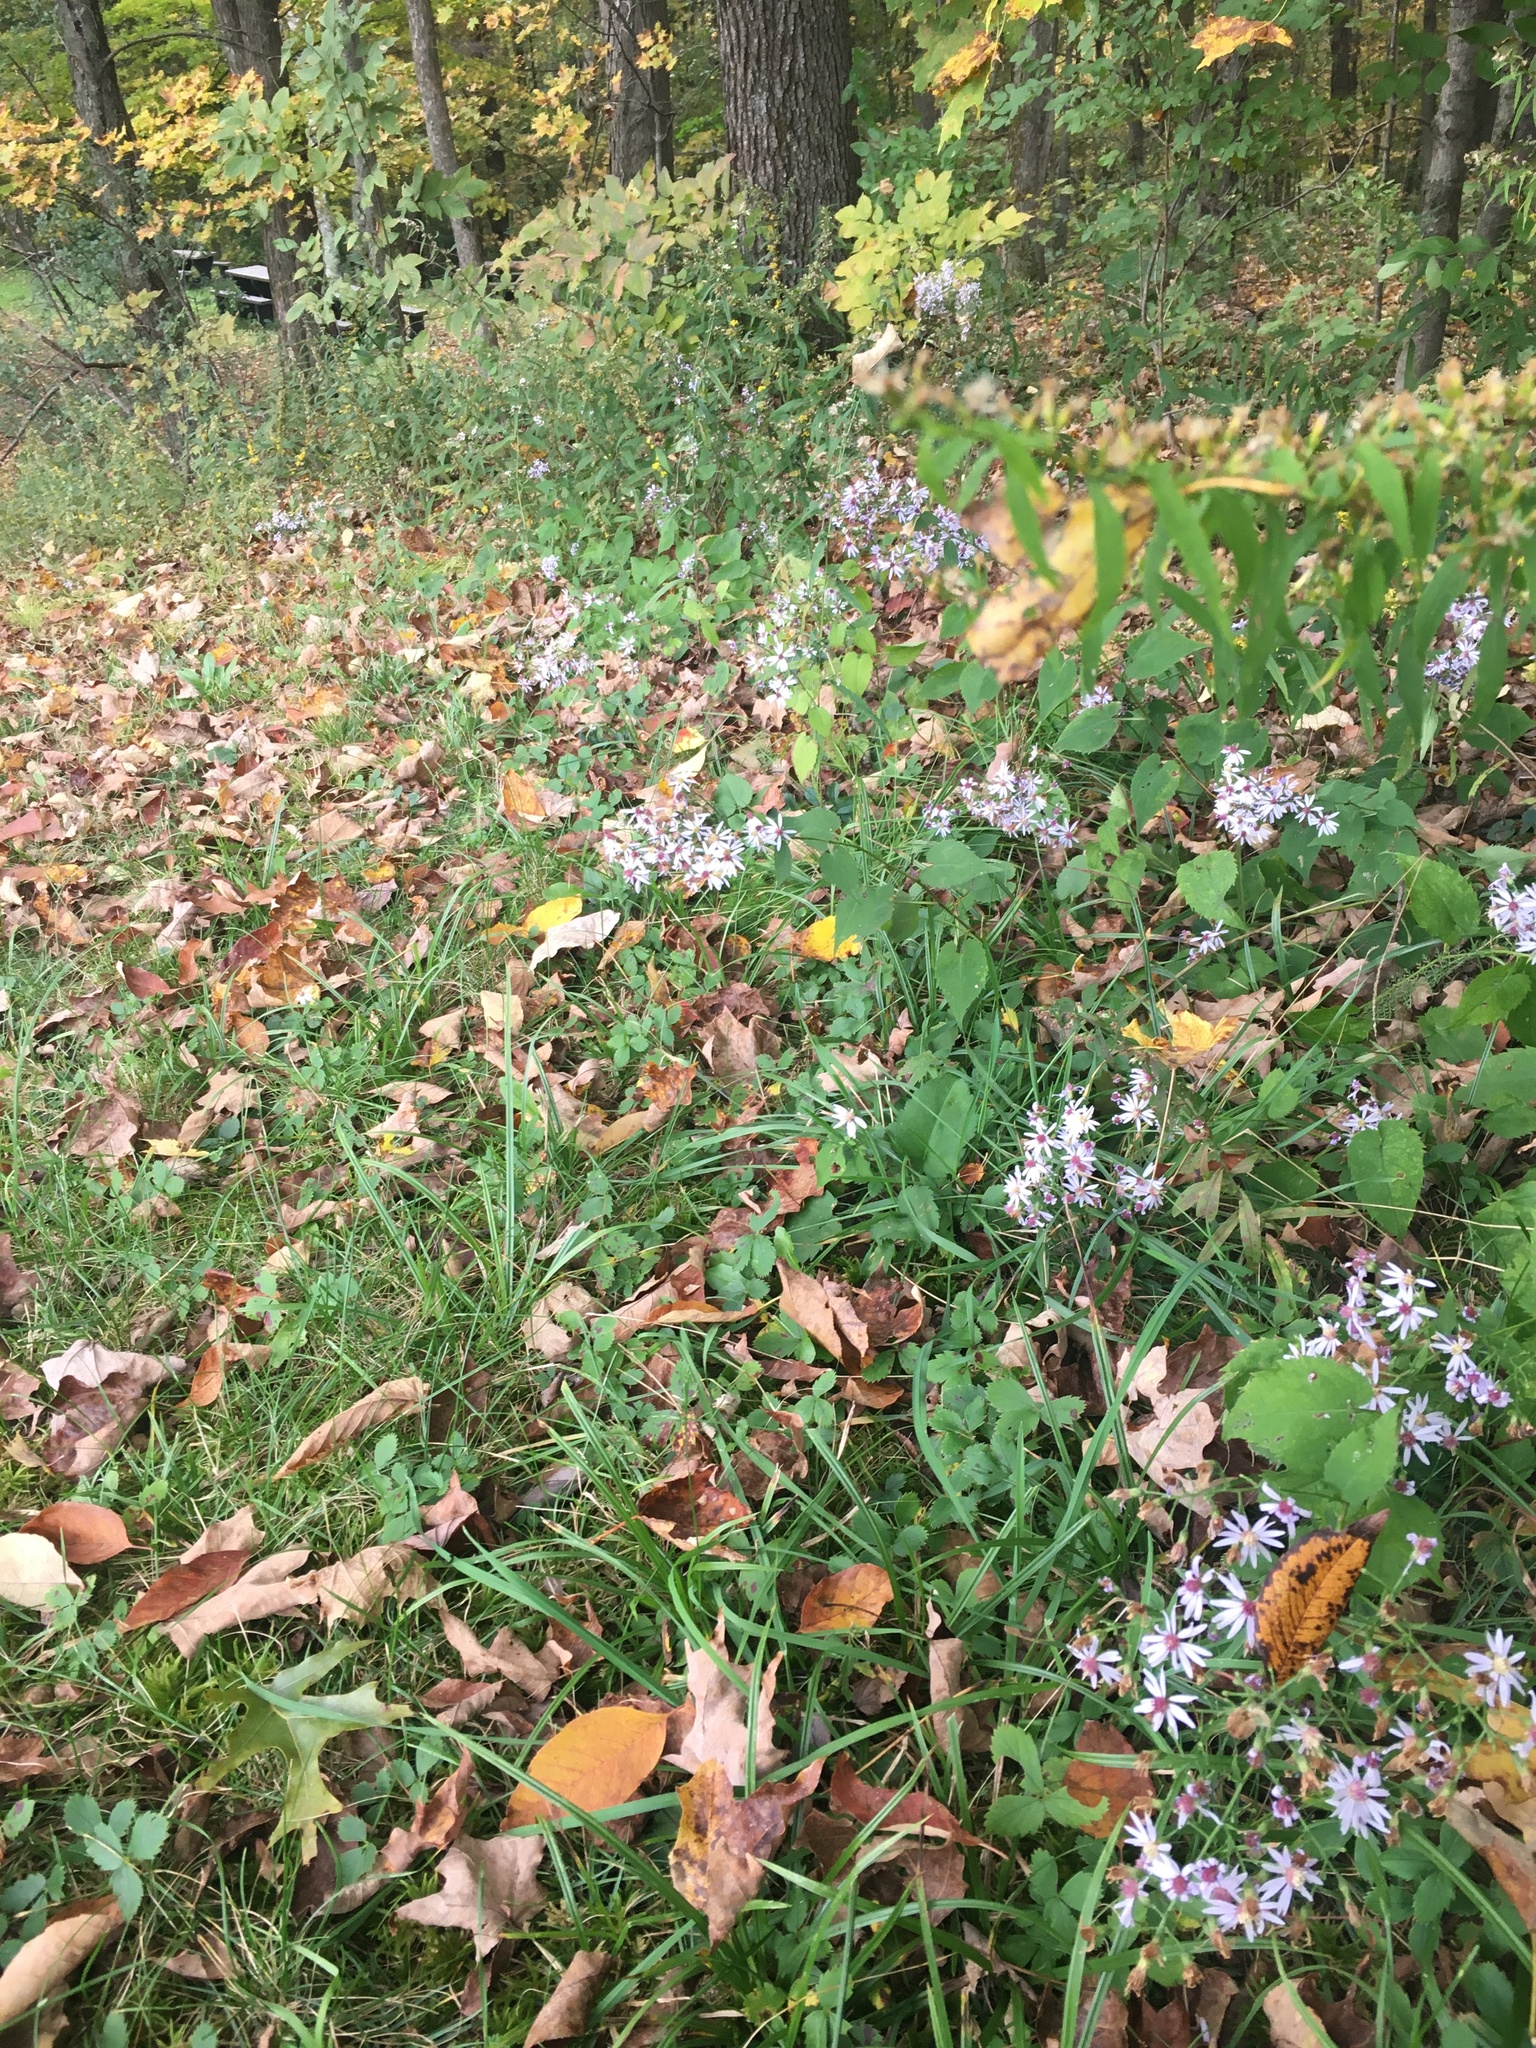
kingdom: Plantae
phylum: Tracheophyta
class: Magnoliopsida
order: Asterales
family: Asteraceae
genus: Symphyotrichum
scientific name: Symphyotrichum cordifolium
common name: Beeweed
